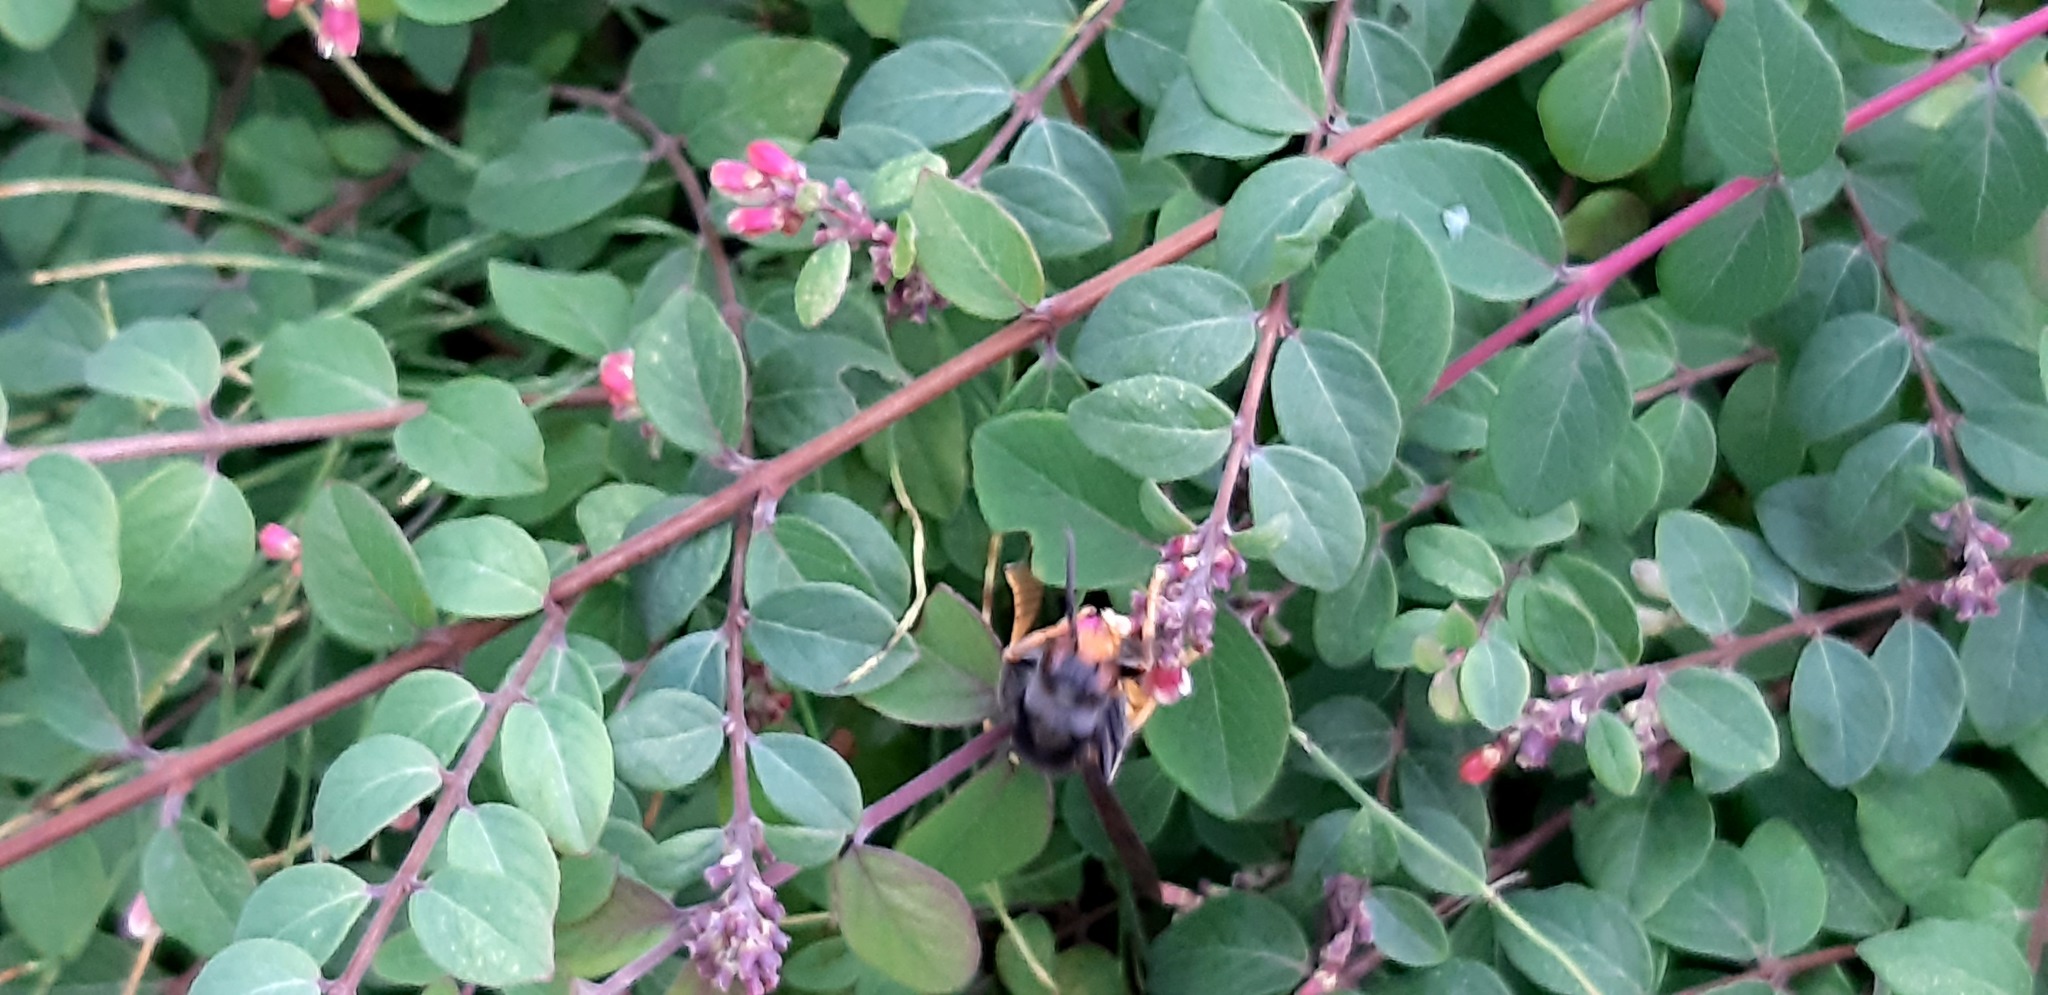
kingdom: Animalia
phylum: Arthropoda
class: Insecta
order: Hymenoptera
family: Vespidae
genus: Vespa
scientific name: Vespa velutina
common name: Asian hornet
